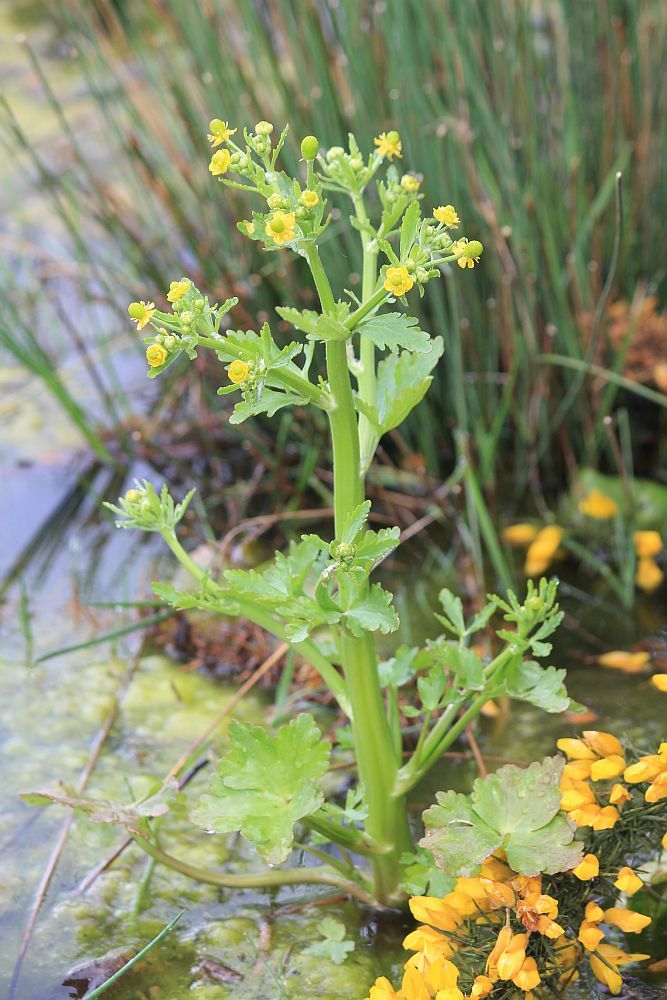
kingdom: Plantae
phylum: Tracheophyta
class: Magnoliopsida
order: Ranunculales
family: Ranunculaceae
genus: Ranunculus
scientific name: Ranunculus sceleratus
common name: Celery-leaved buttercup
